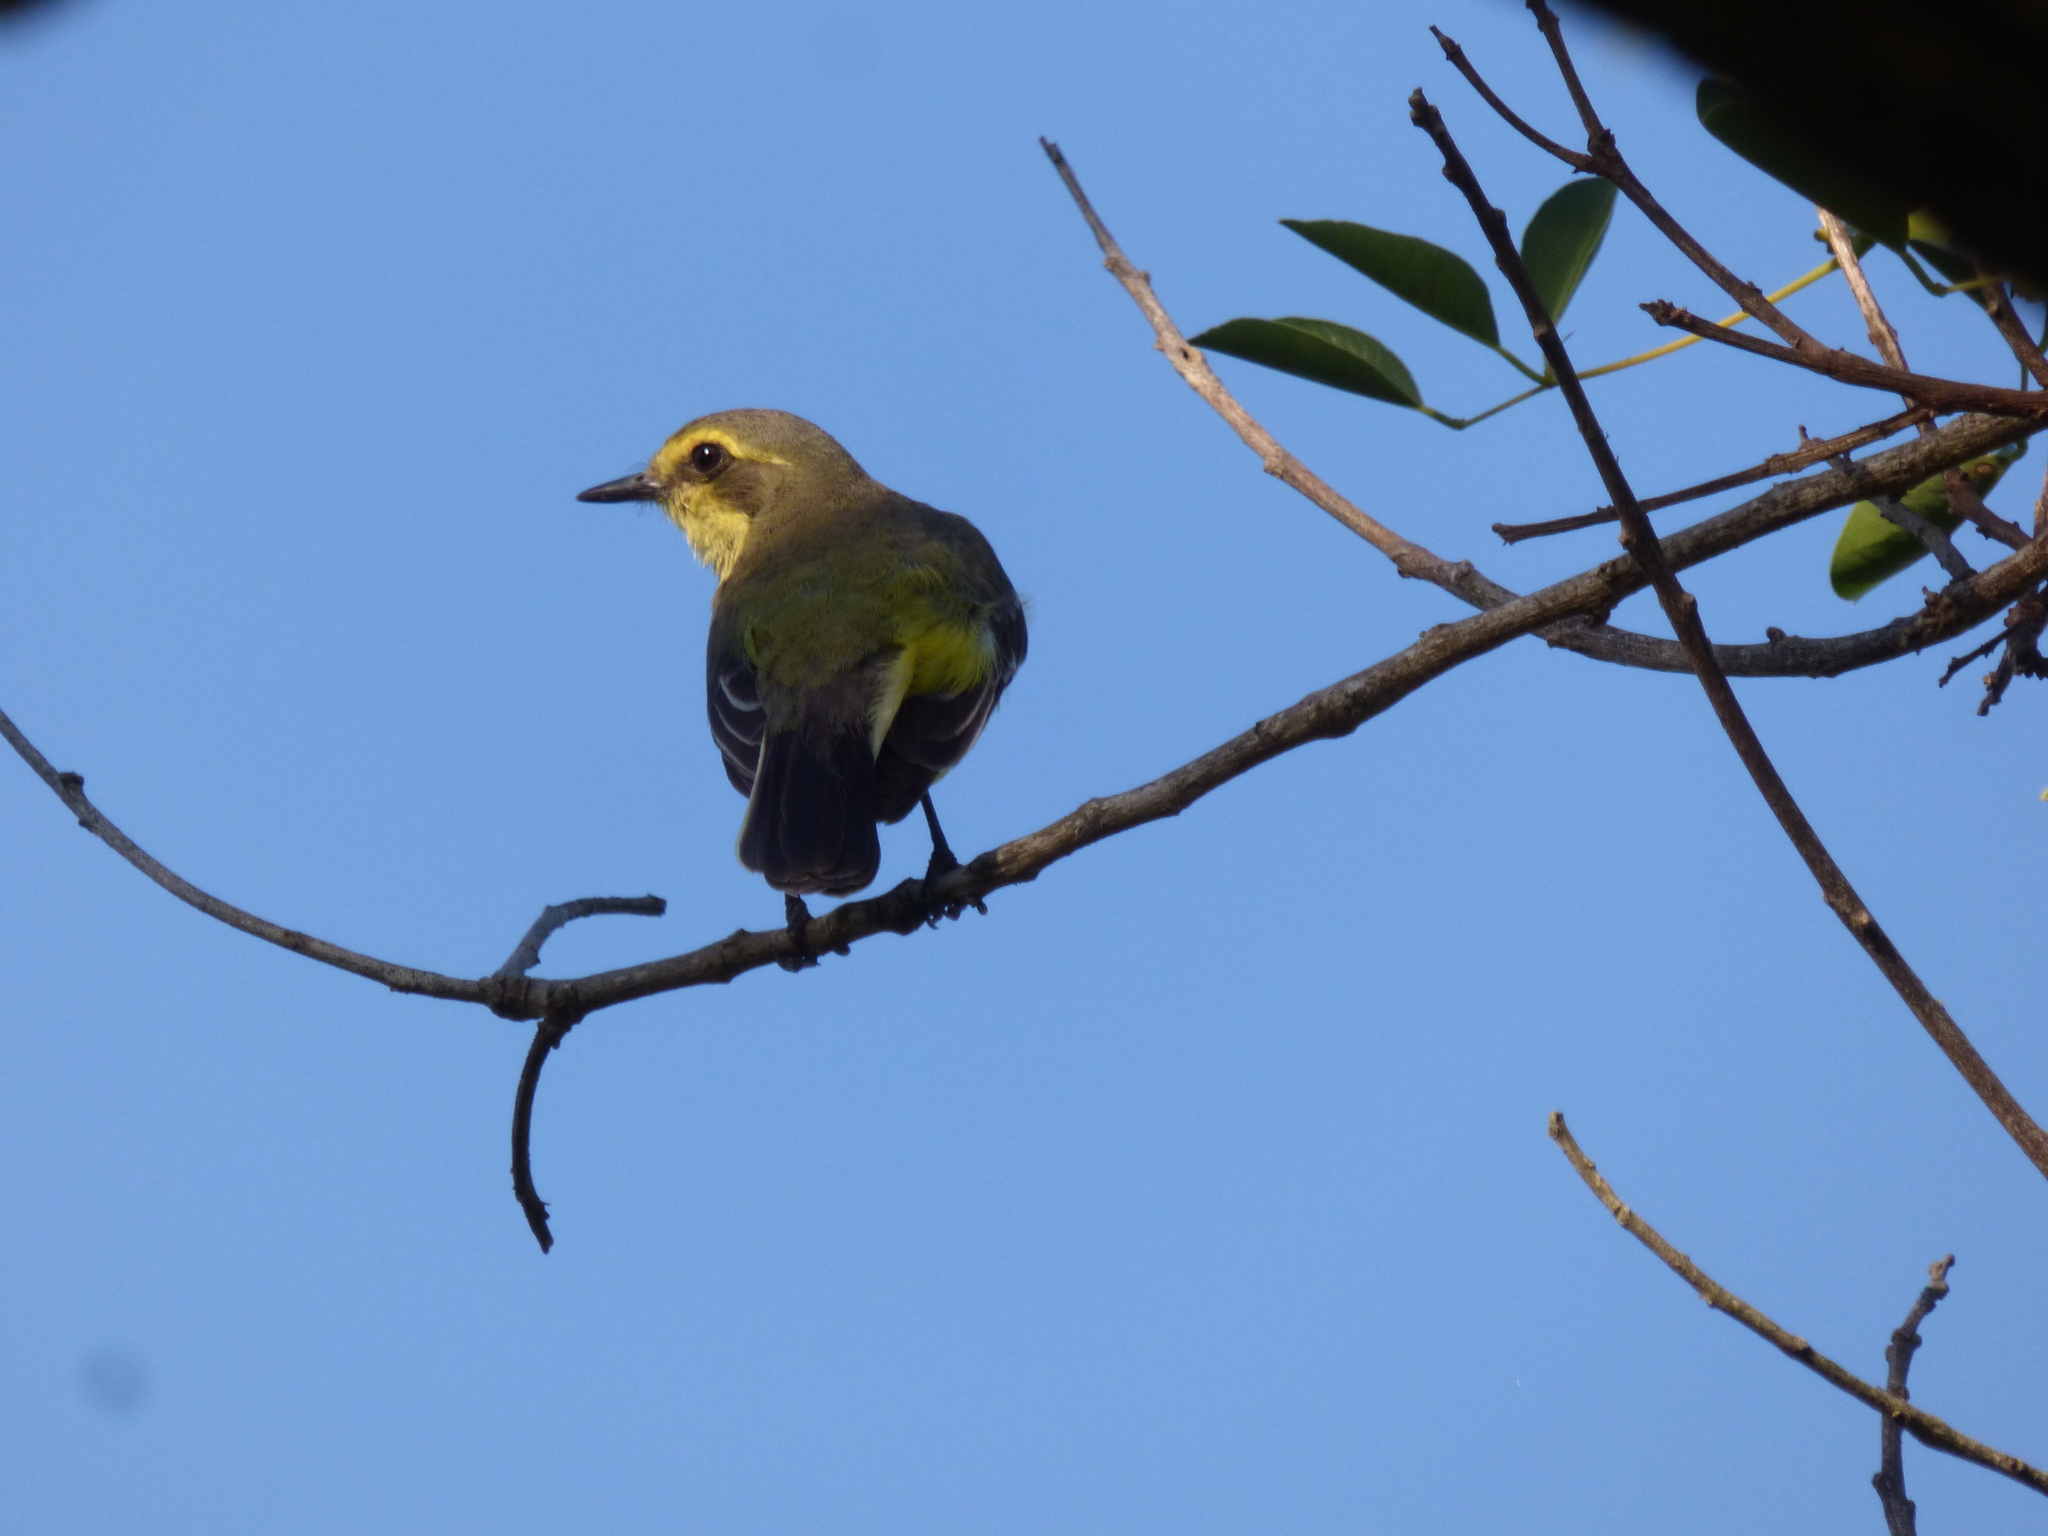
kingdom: Animalia
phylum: Chordata
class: Aves
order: Passeriformes
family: Tyrannidae
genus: Satrapa
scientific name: Satrapa icterophrys
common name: Yellow-browed tyrant
